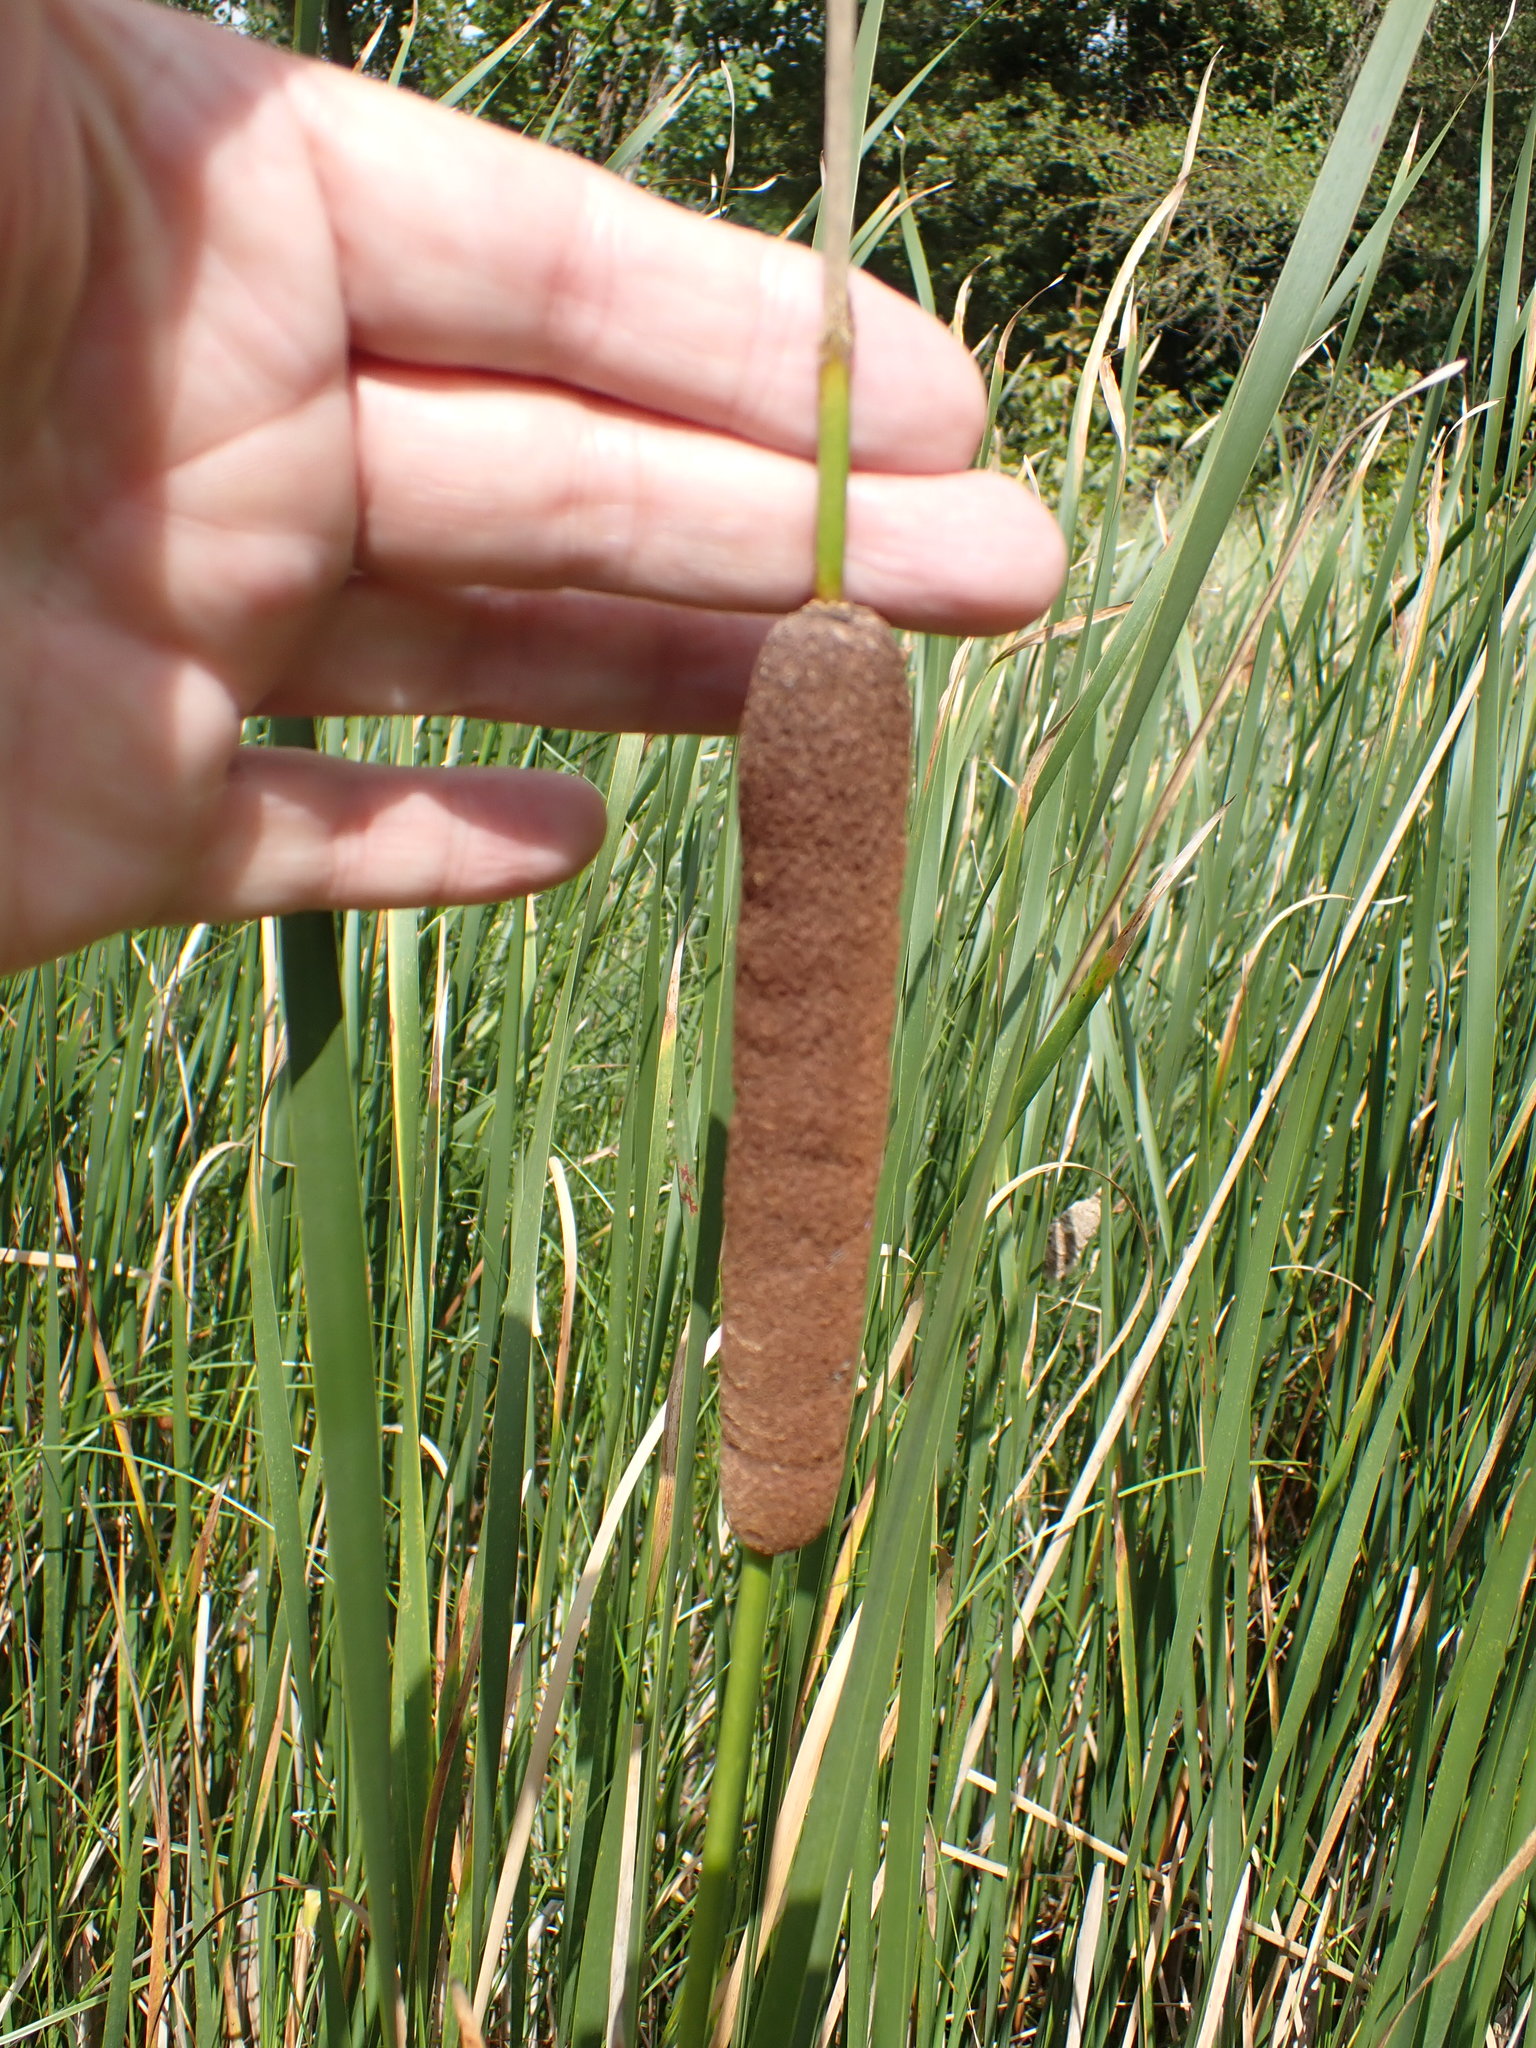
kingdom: Plantae
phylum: Tracheophyta
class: Liliopsida
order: Poales
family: Typhaceae
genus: Typha
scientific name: Typha angustifolia
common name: Lesser bulrush
